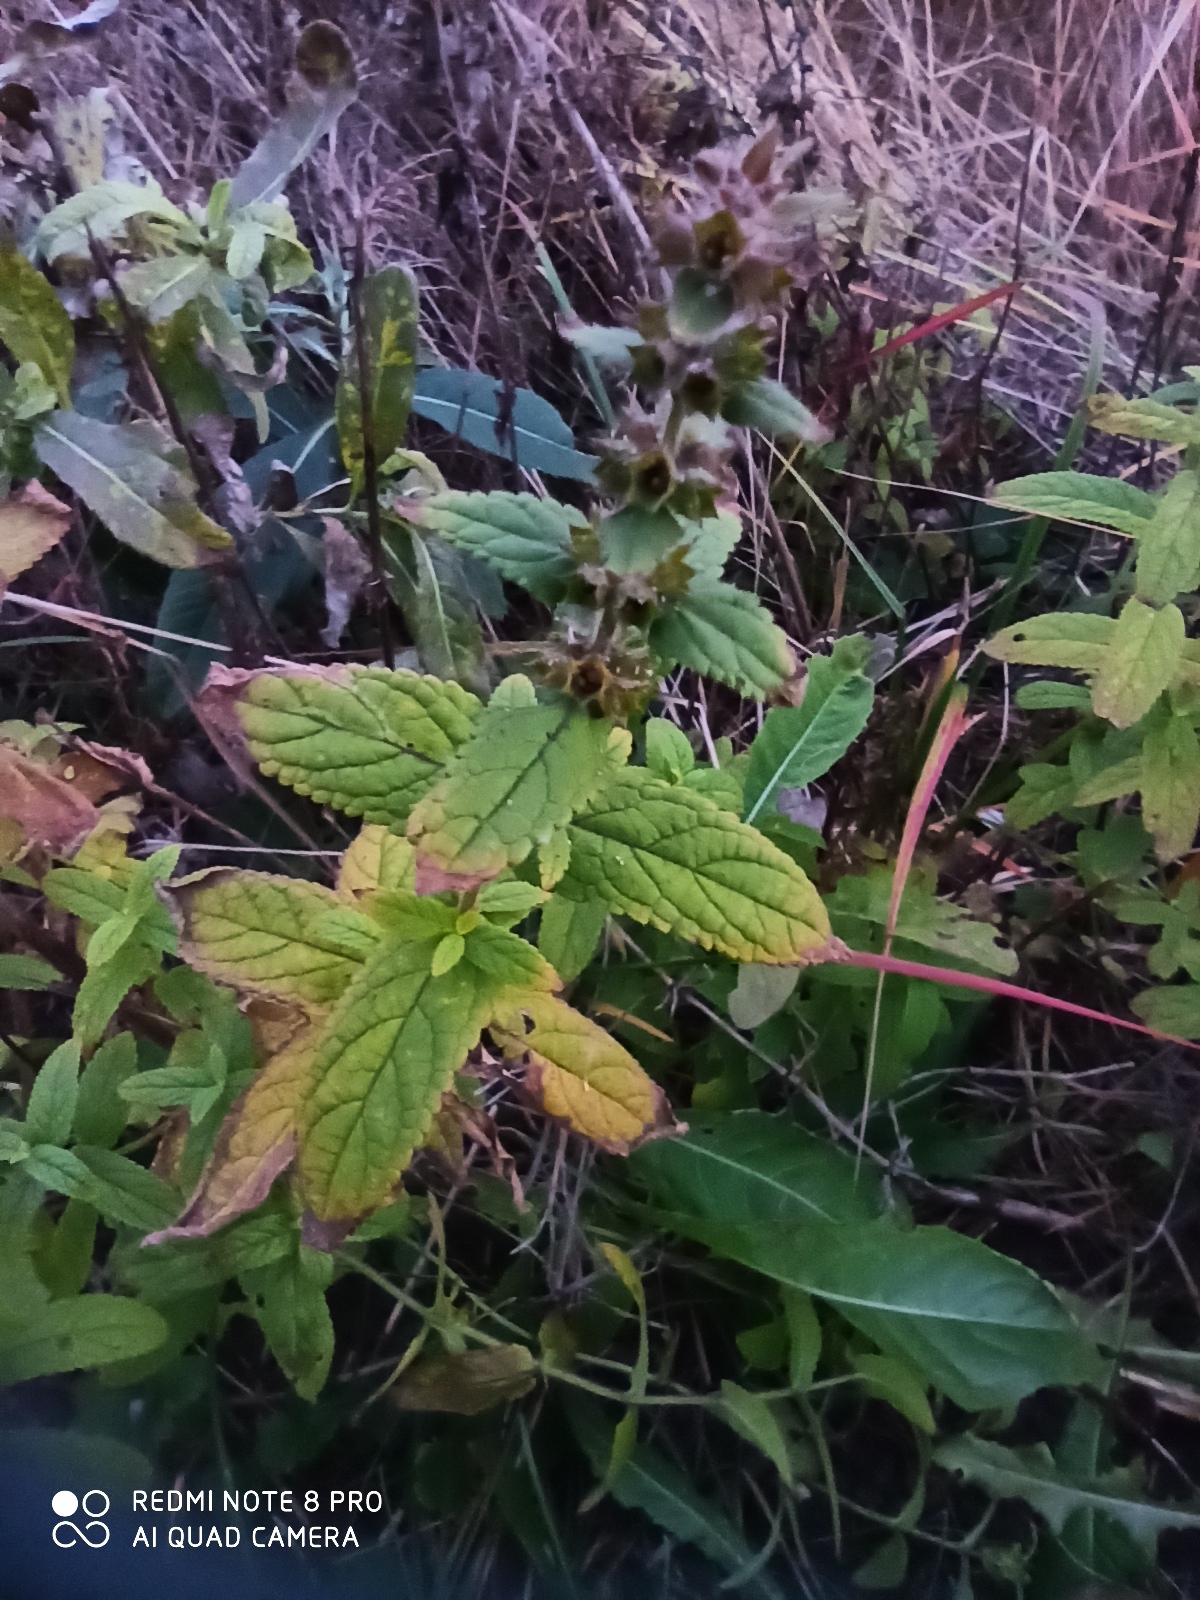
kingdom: Plantae
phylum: Tracheophyta
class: Magnoliopsida
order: Lamiales
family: Lamiaceae
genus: Stachys
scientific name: Stachys palustris
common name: Marsh woundwort
